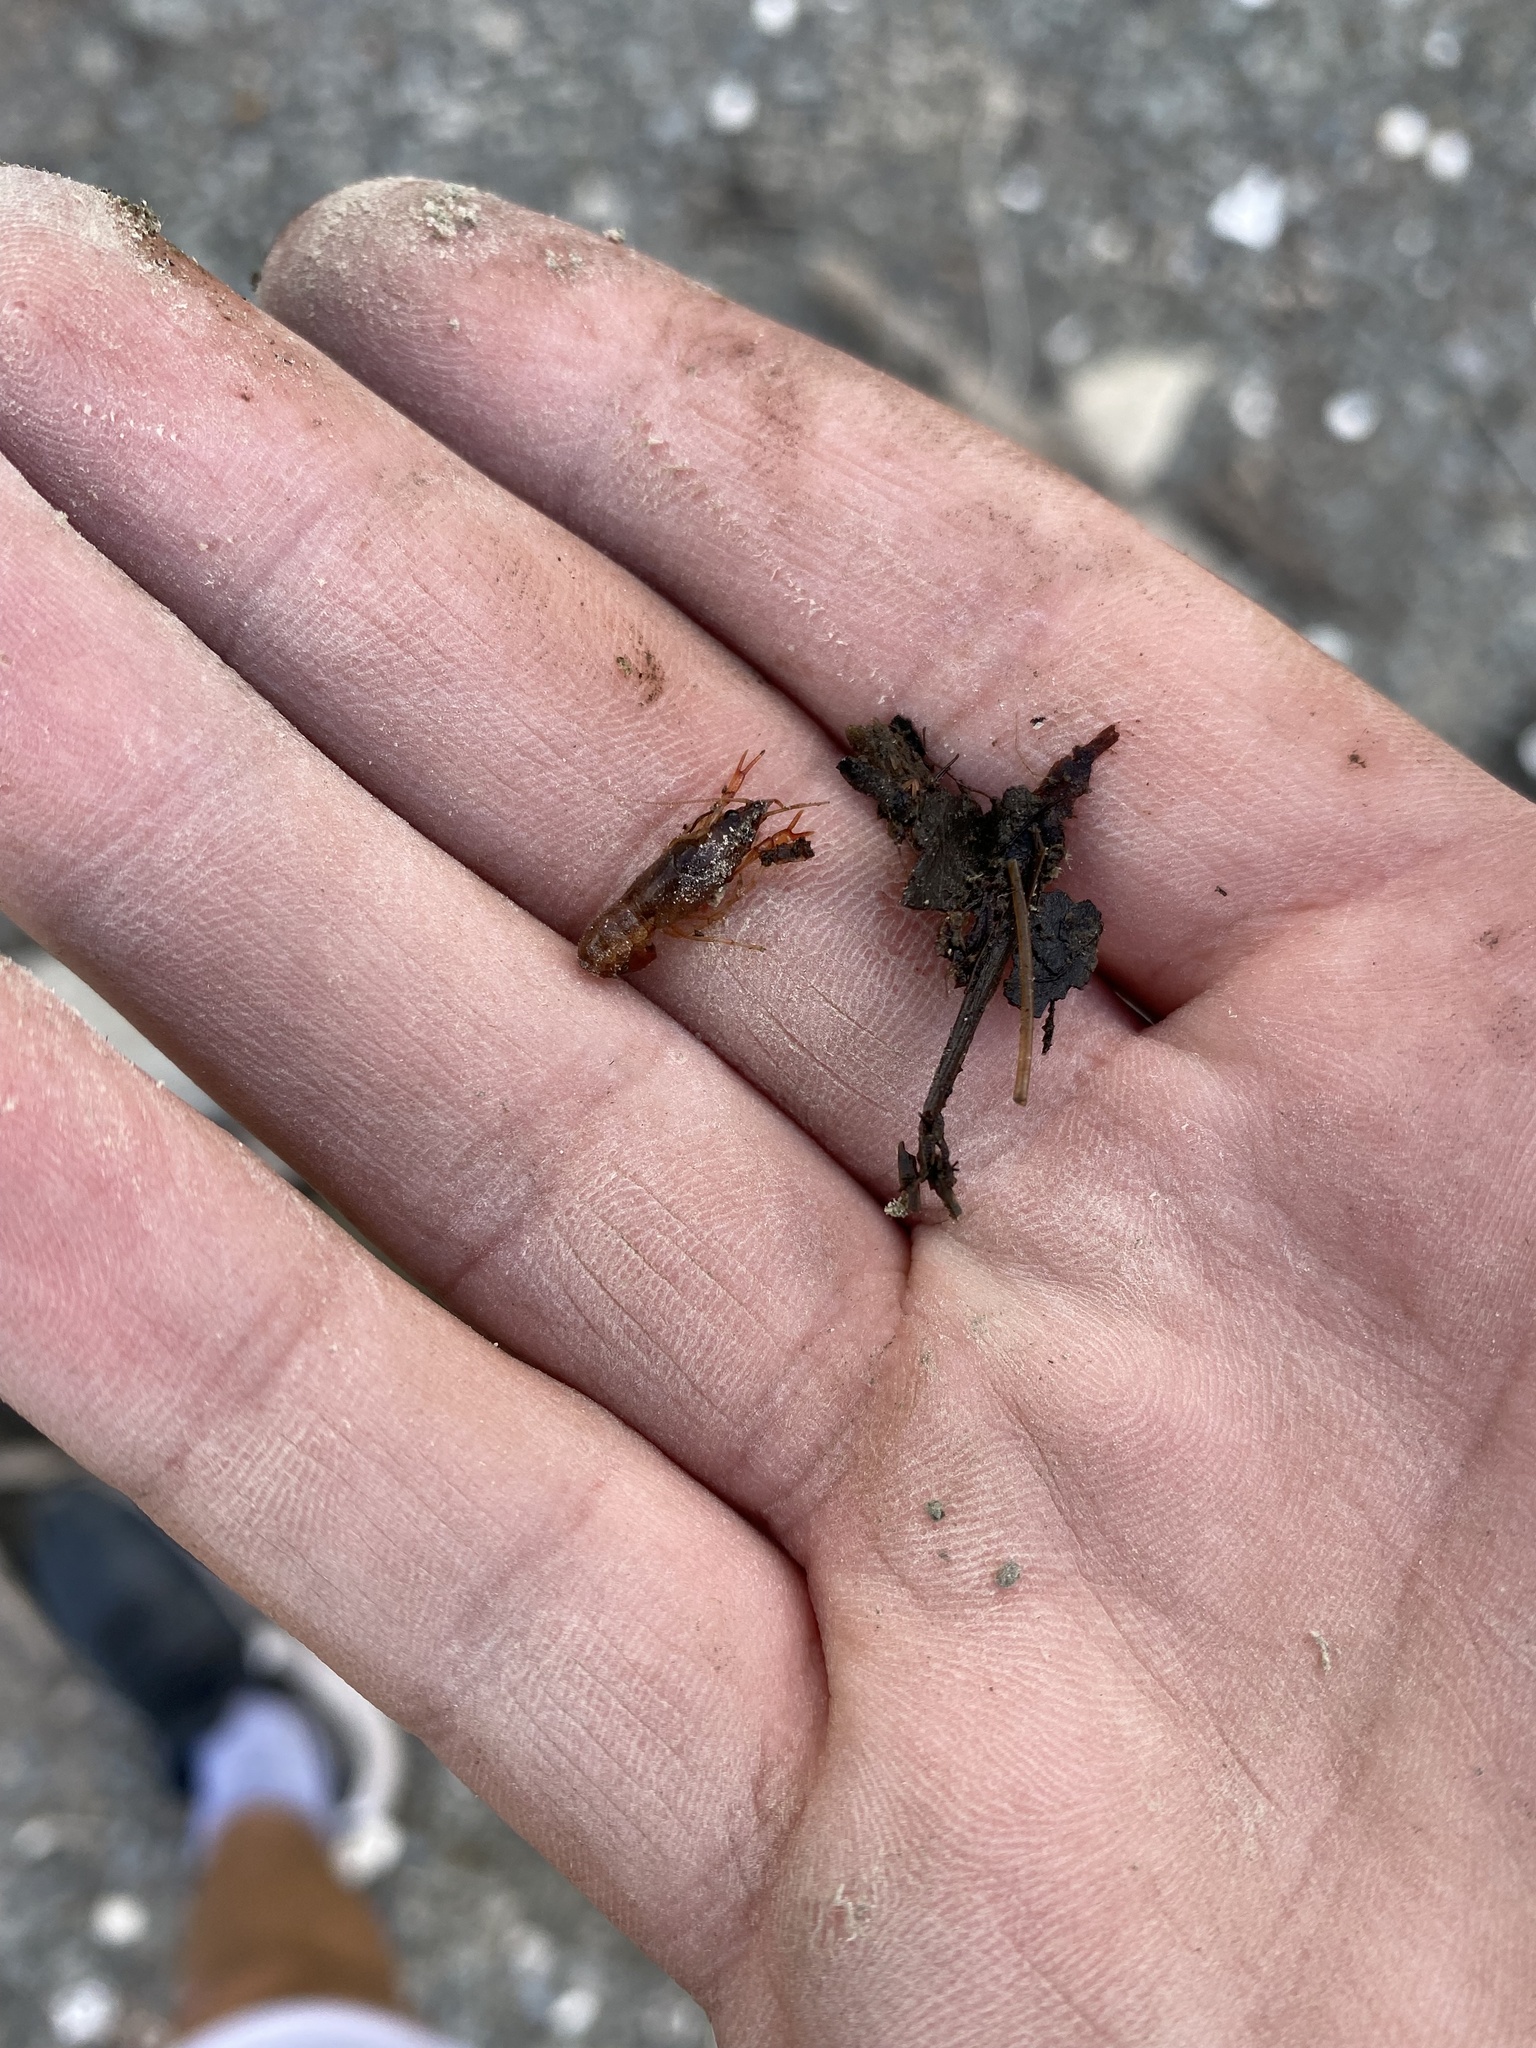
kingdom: Animalia
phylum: Arthropoda
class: Malacostraca
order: Decapoda
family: Cambaridae
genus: Procambarus
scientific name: Procambarus clarkii
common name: Red swamp crayfish
